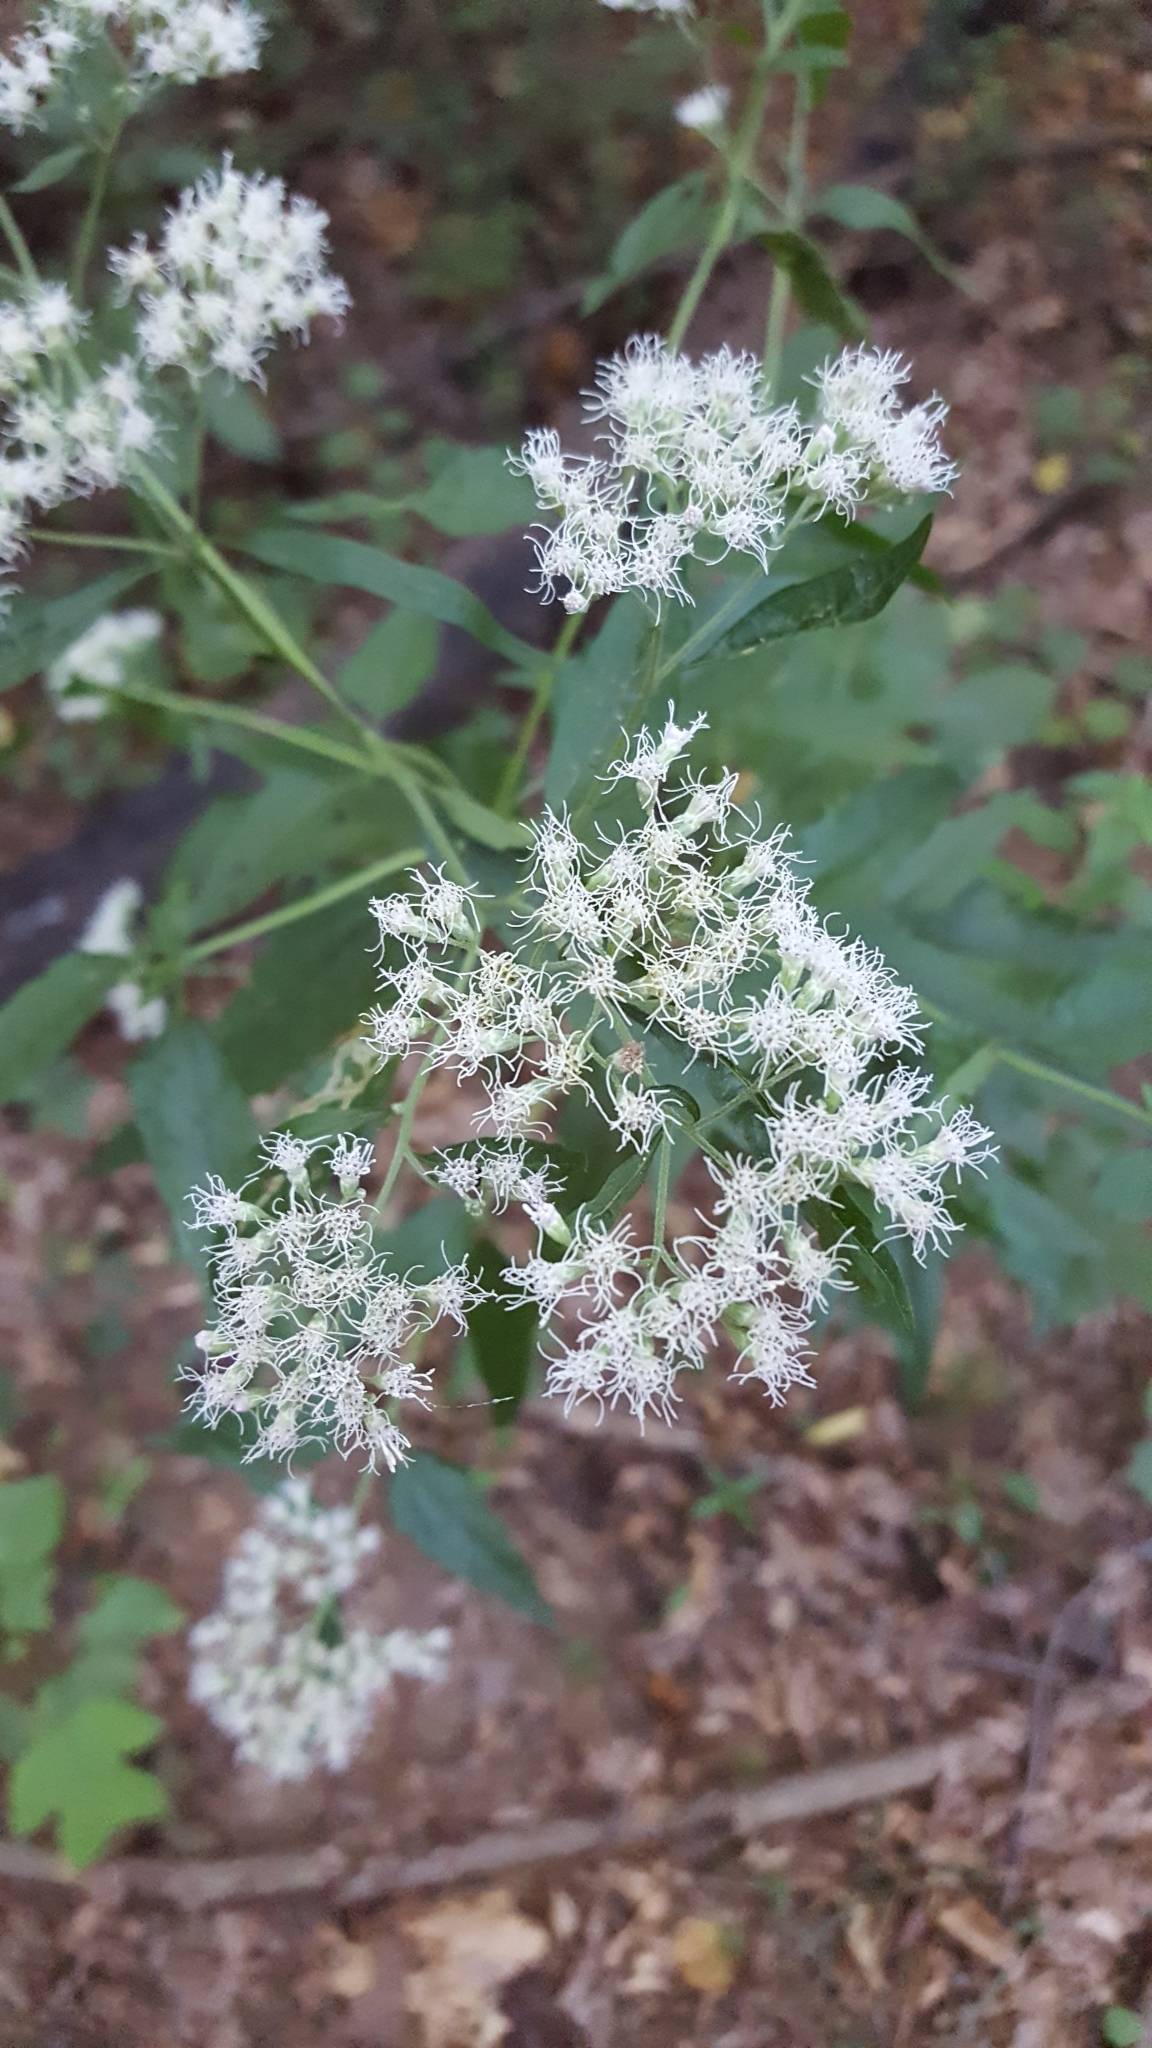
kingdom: Plantae
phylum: Tracheophyta
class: Magnoliopsida
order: Asterales
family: Asteraceae
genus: Eupatorium
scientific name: Eupatorium serotinum
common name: Late boneset
